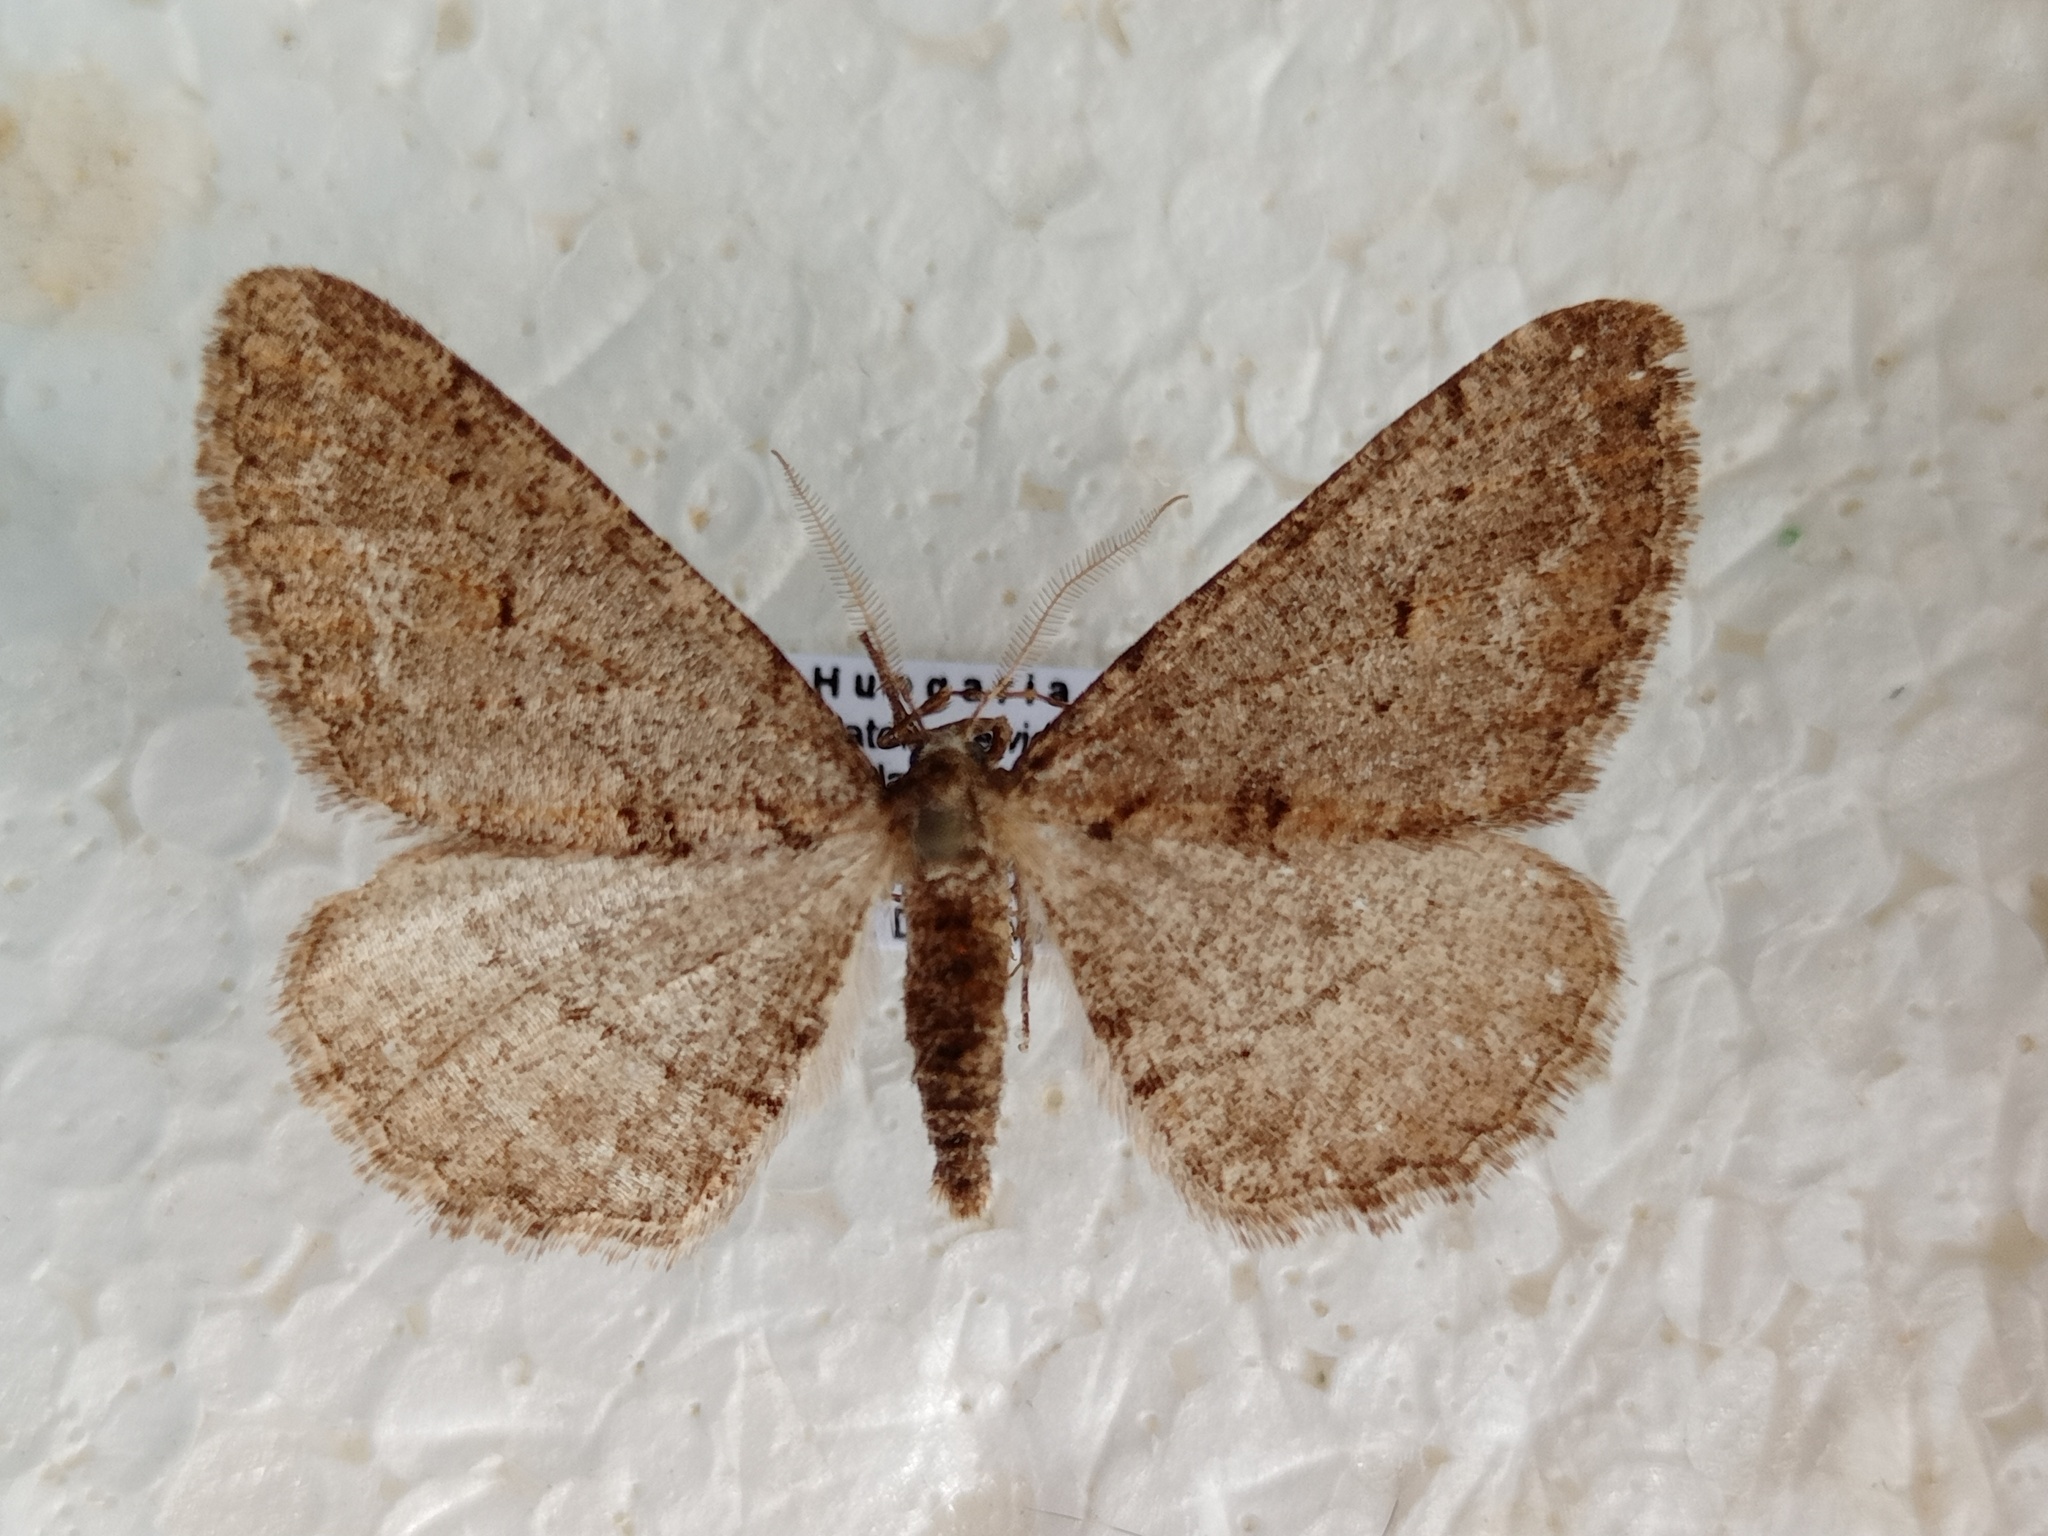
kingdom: Animalia
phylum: Arthropoda
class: Insecta
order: Lepidoptera
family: Geometridae
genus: Agriopis
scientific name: Agriopis bajaria
